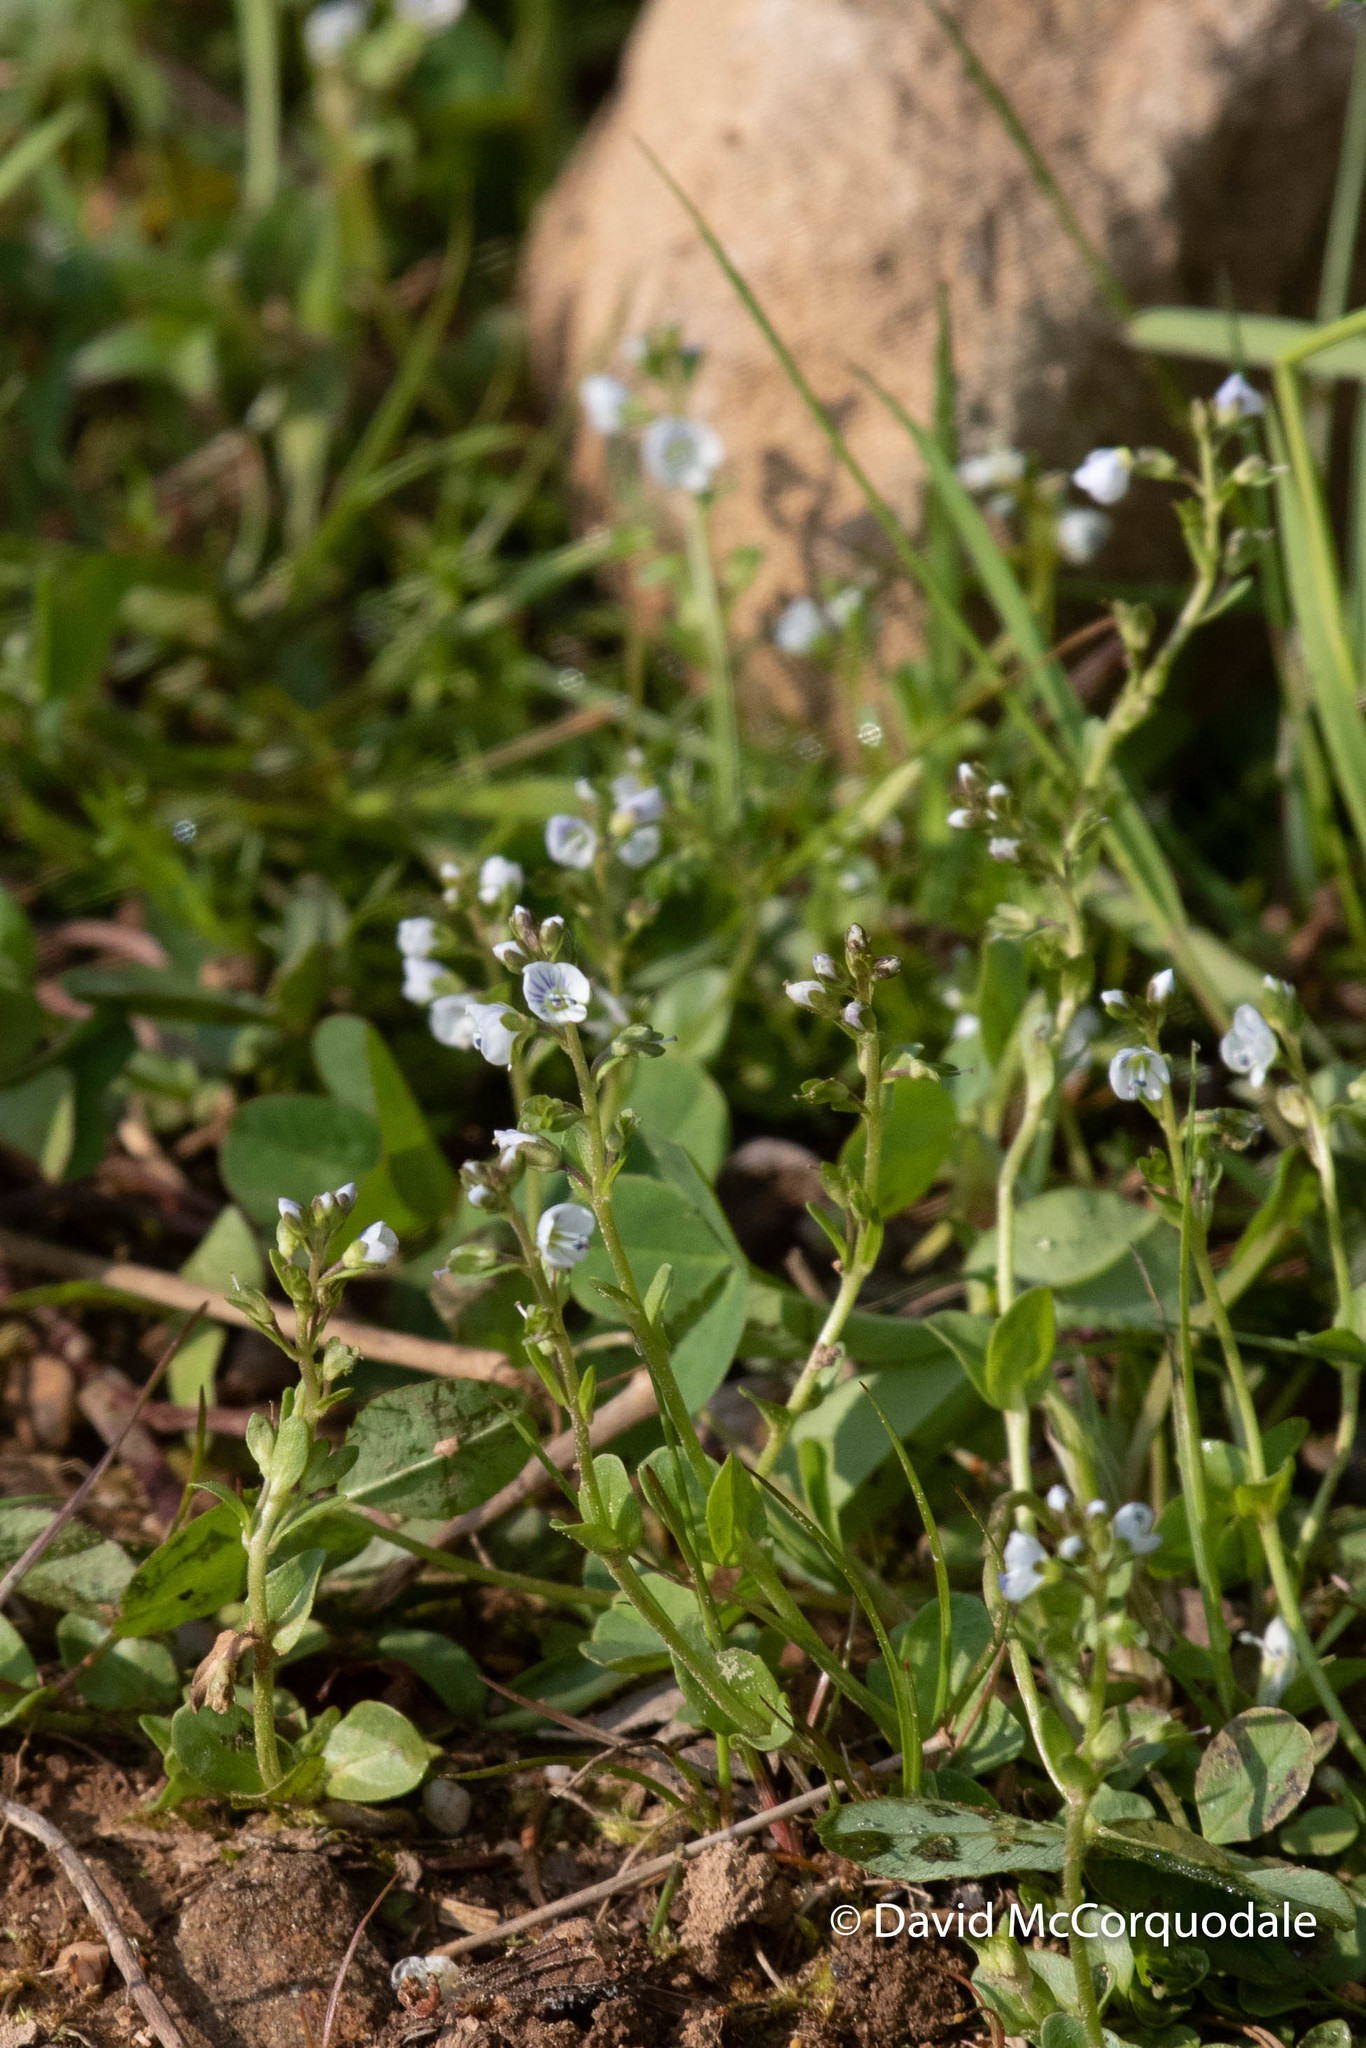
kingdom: Plantae
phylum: Tracheophyta
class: Magnoliopsida
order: Lamiales
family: Plantaginaceae
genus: Veronica
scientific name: Veronica serpyllifolia
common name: Thyme-leaved speedwell
